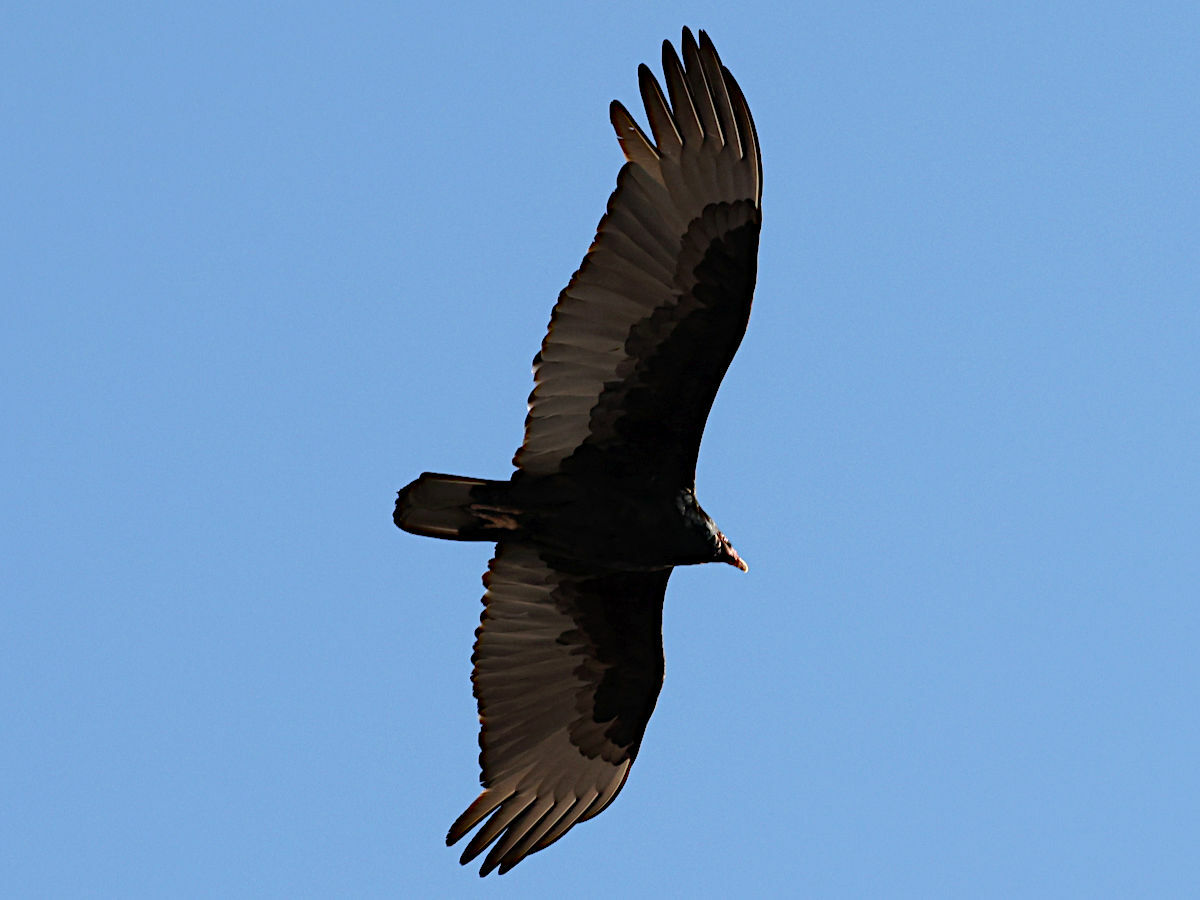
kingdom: Animalia
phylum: Chordata
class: Aves
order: Accipitriformes
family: Cathartidae
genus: Cathartes
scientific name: Cathartes aura
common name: Turkey vulture
